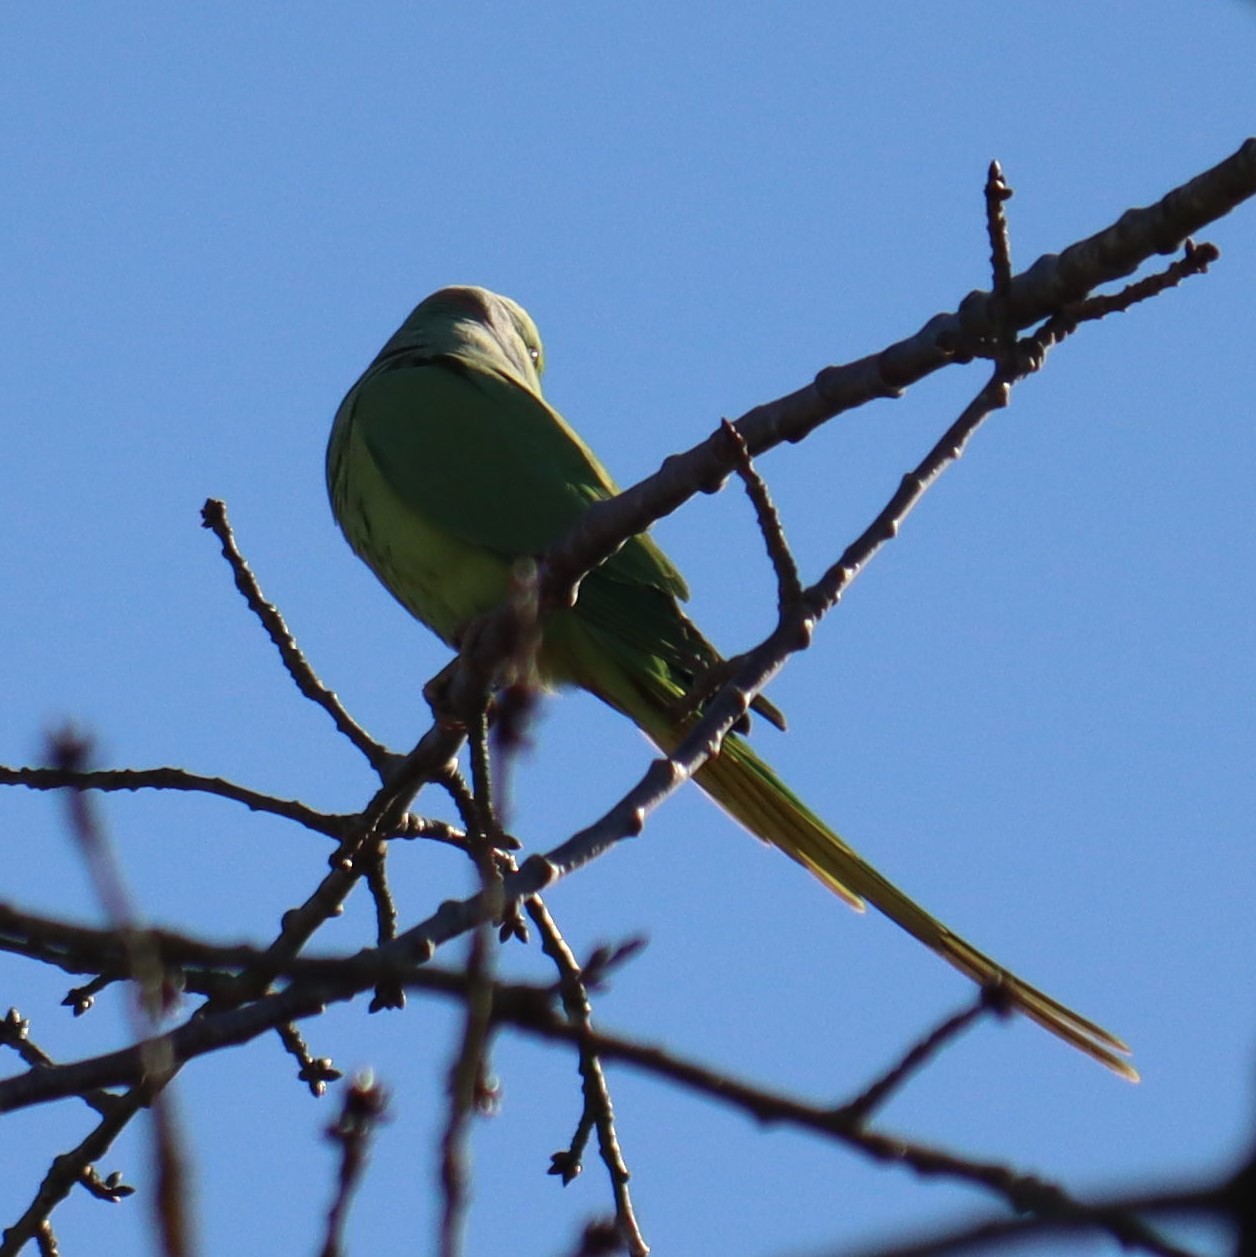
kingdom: Animalia
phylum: Chordata
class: Aves
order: Psittaciformes
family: Psittacidae
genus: Psittacula
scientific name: Psittacula krameri
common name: Rose-ringed parakeet
